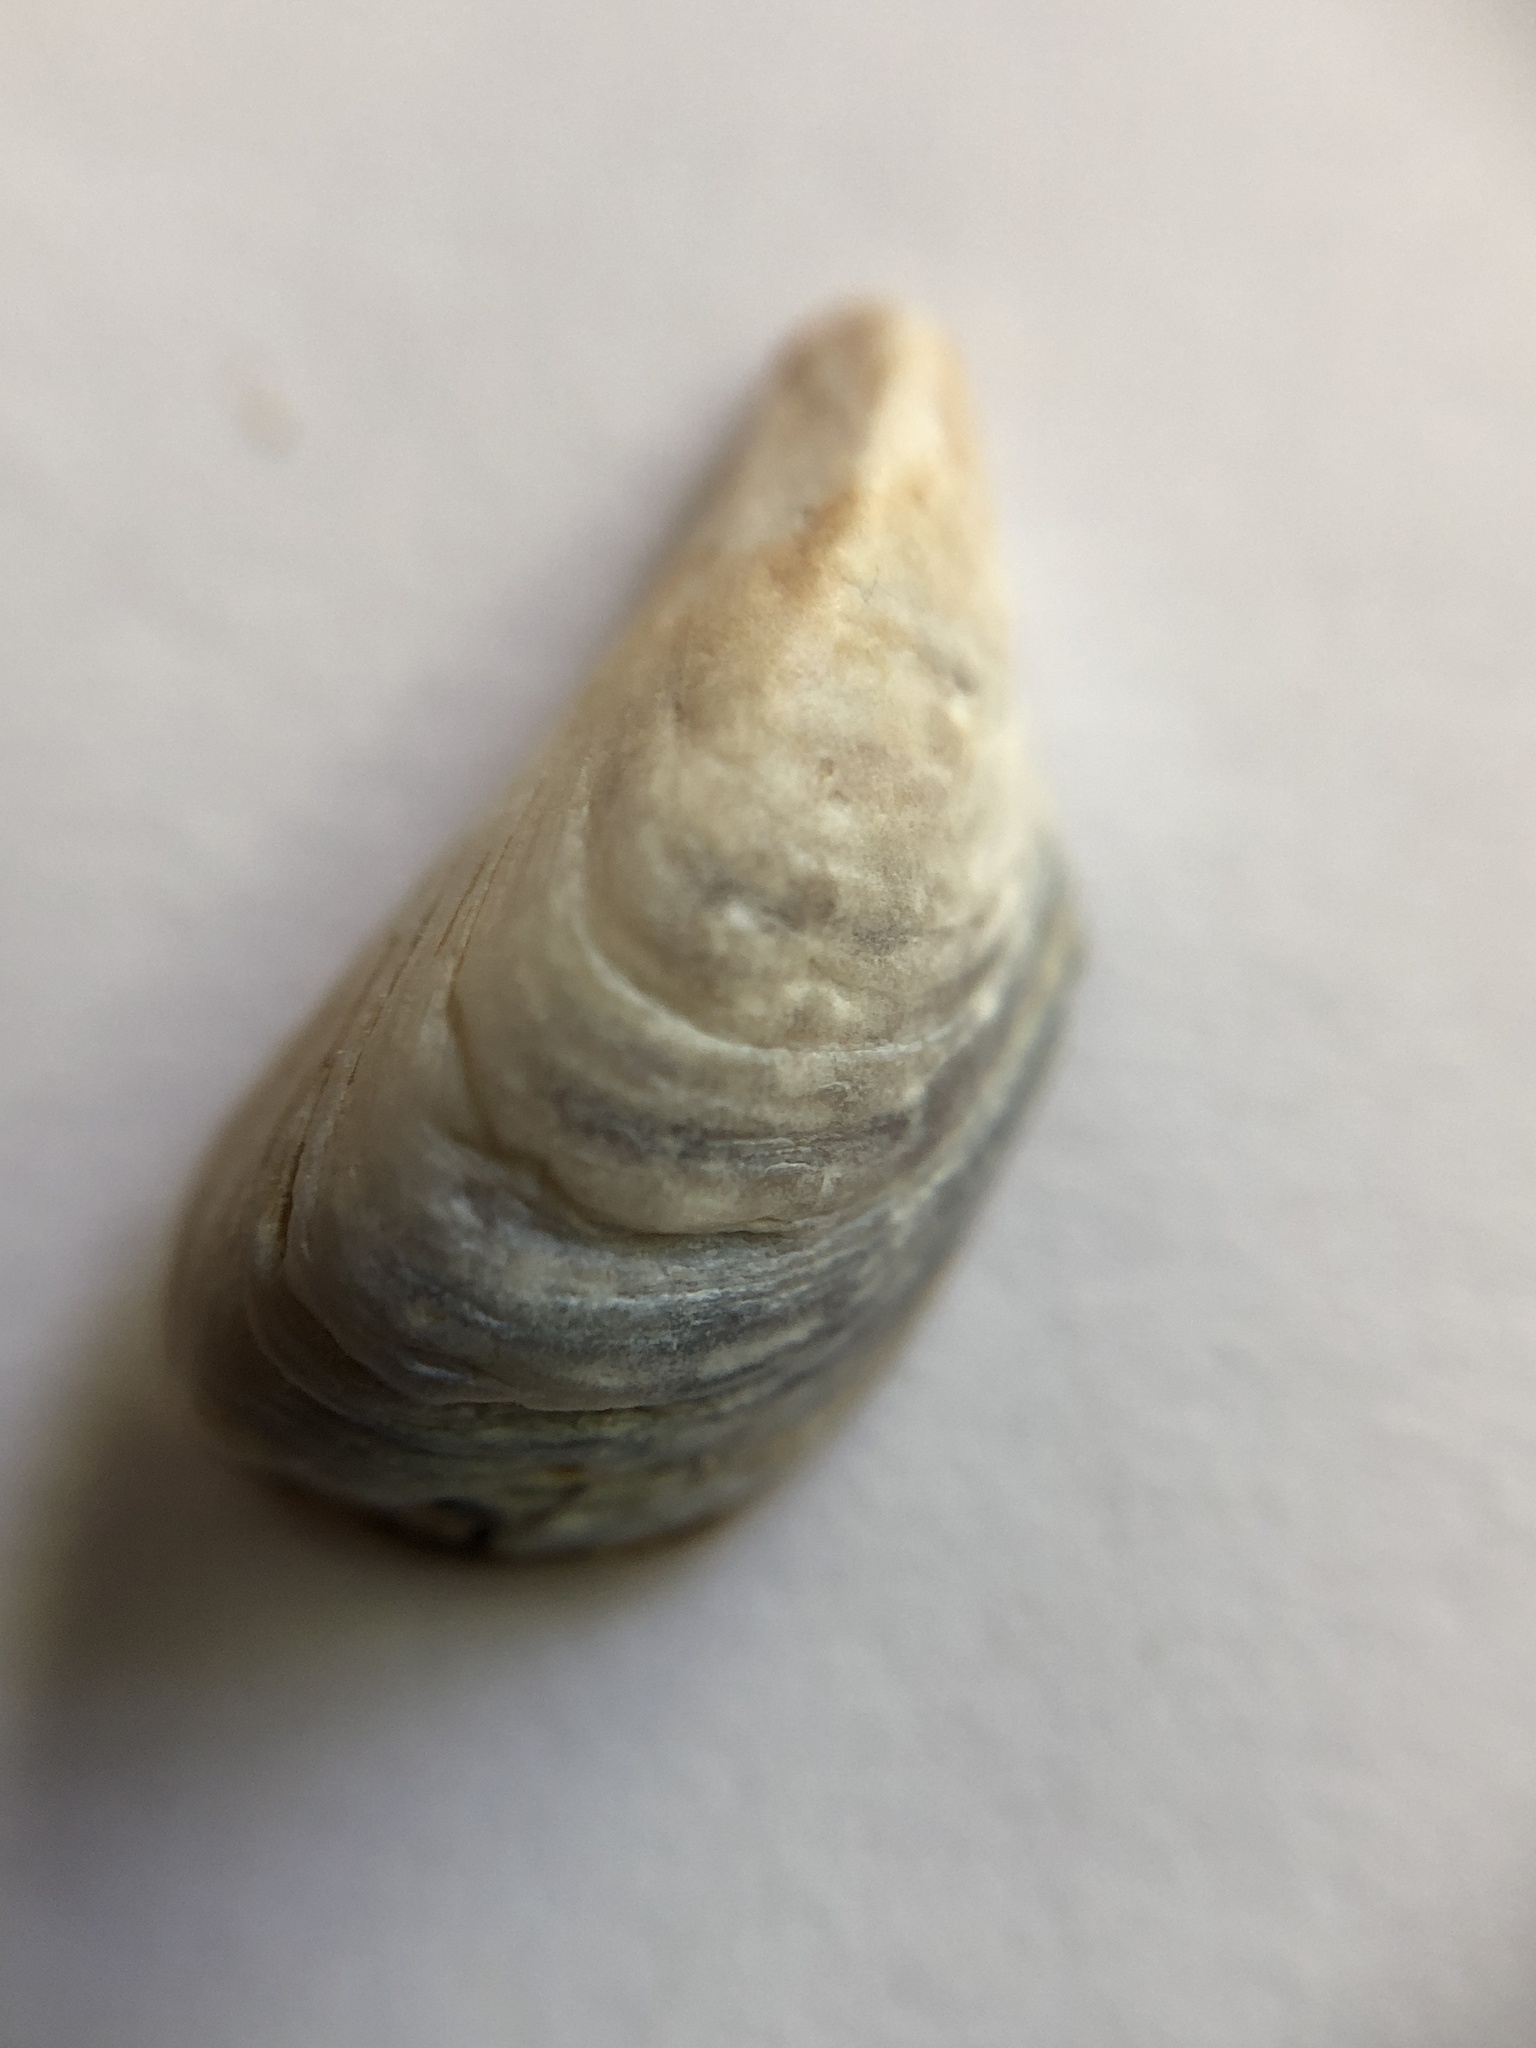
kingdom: Animalia
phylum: Mollusca
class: Bivalvia
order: Myida
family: Dreissenidae
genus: Dreissena
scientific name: Dreissena polymorpha
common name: Zebra mussel
